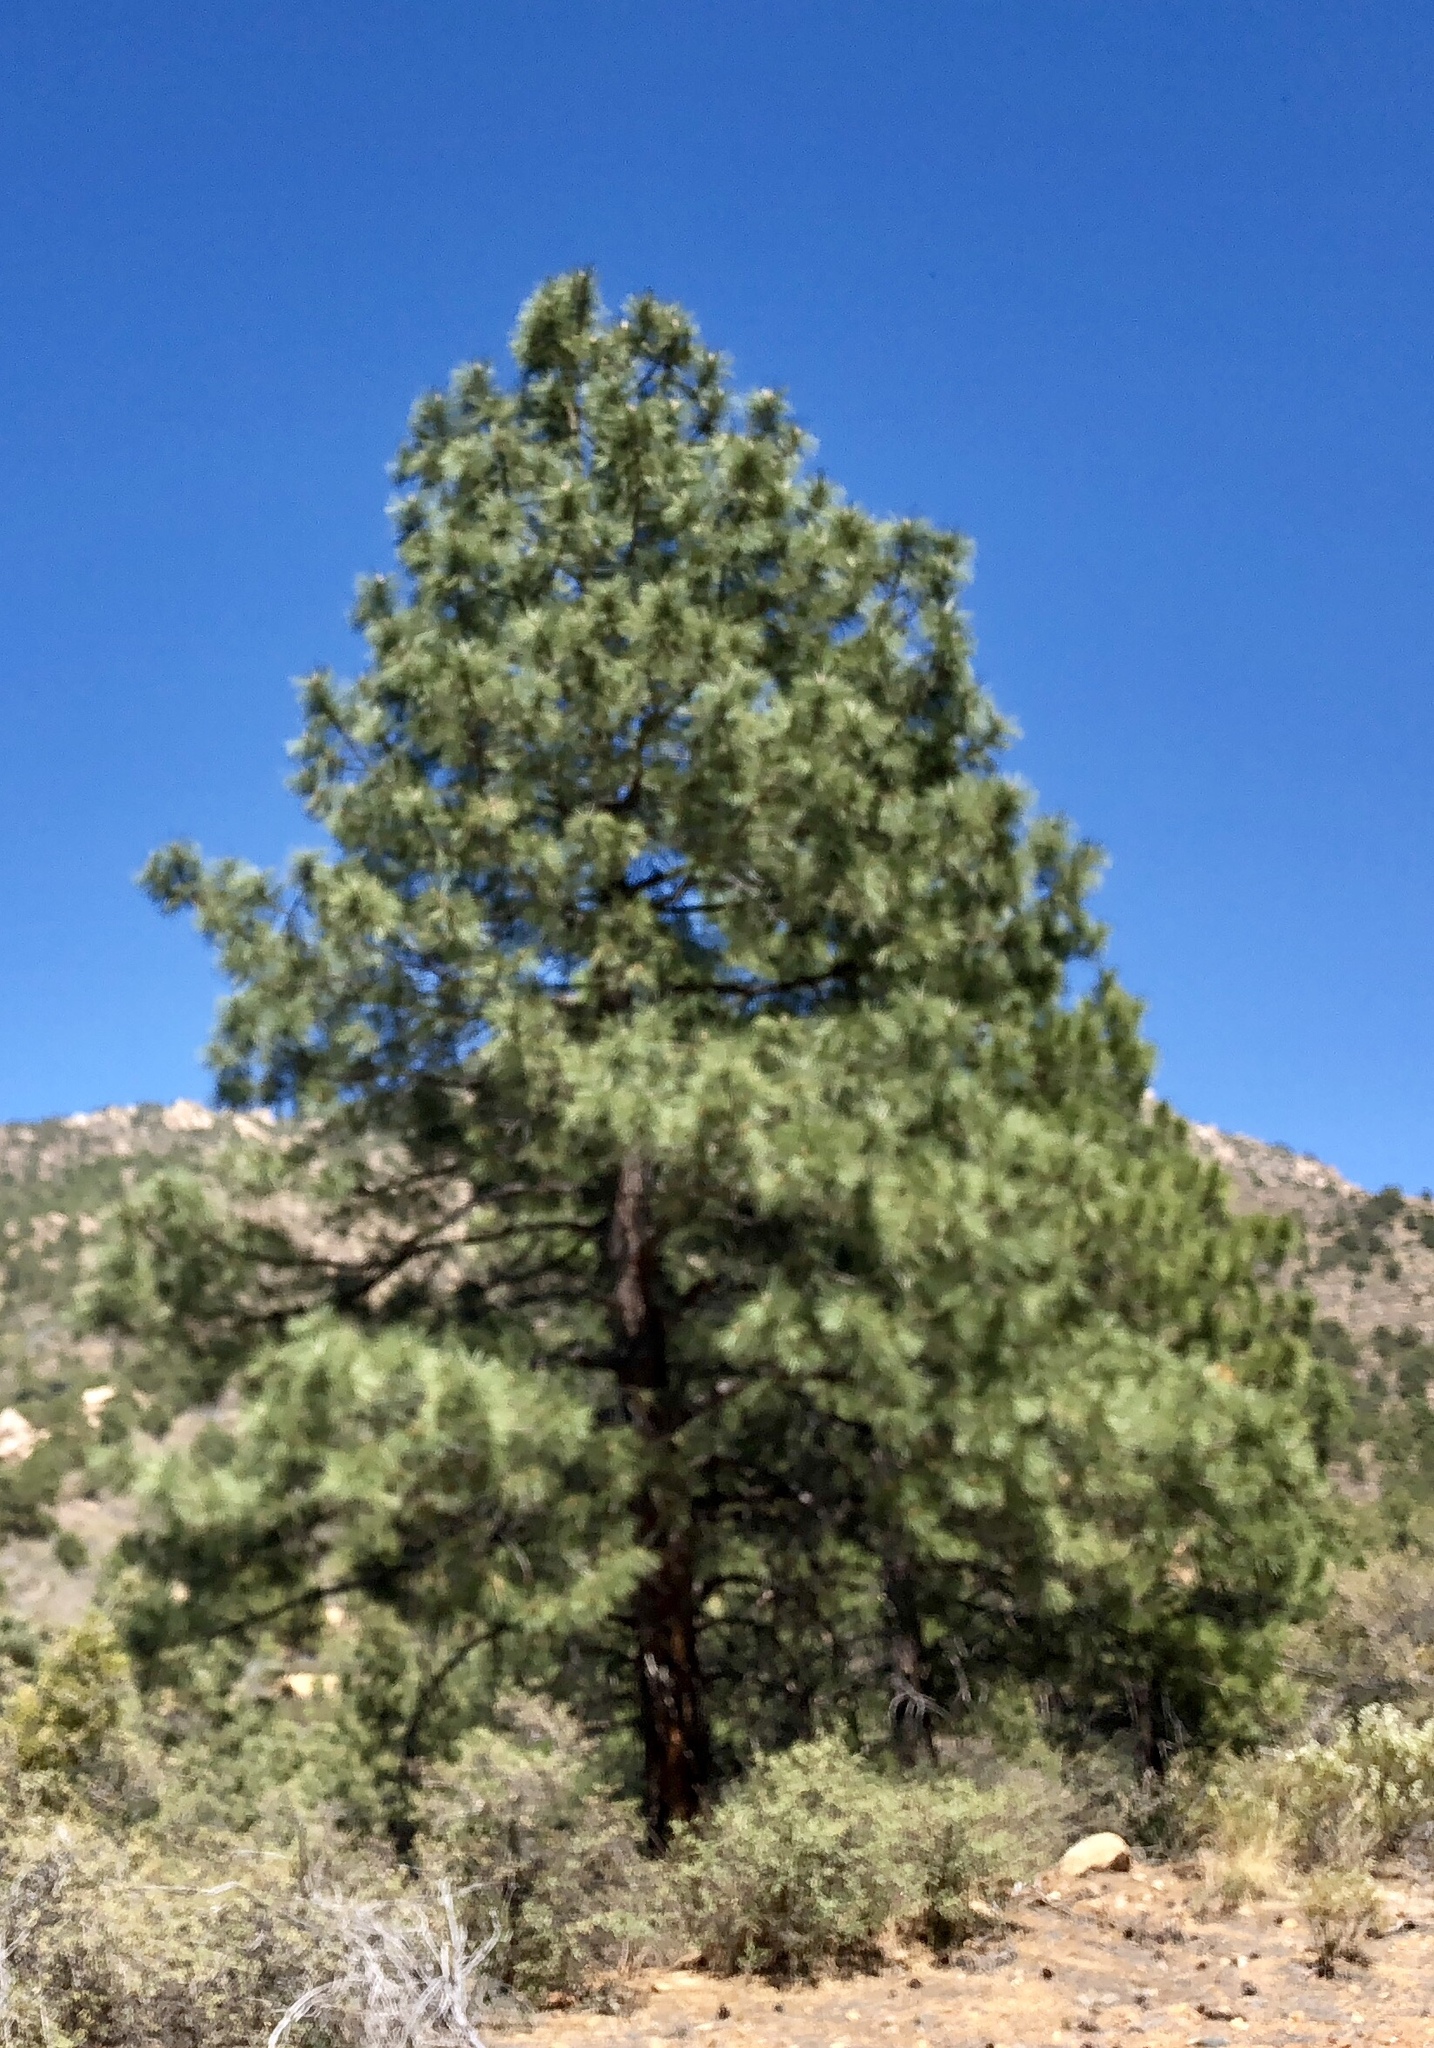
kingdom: Plantae
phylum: Tracheophyta
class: Pinopsida
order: Pinales
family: Pinaceae
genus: Pinus
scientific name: Pinus ponderosa
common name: Western yellow-pine
